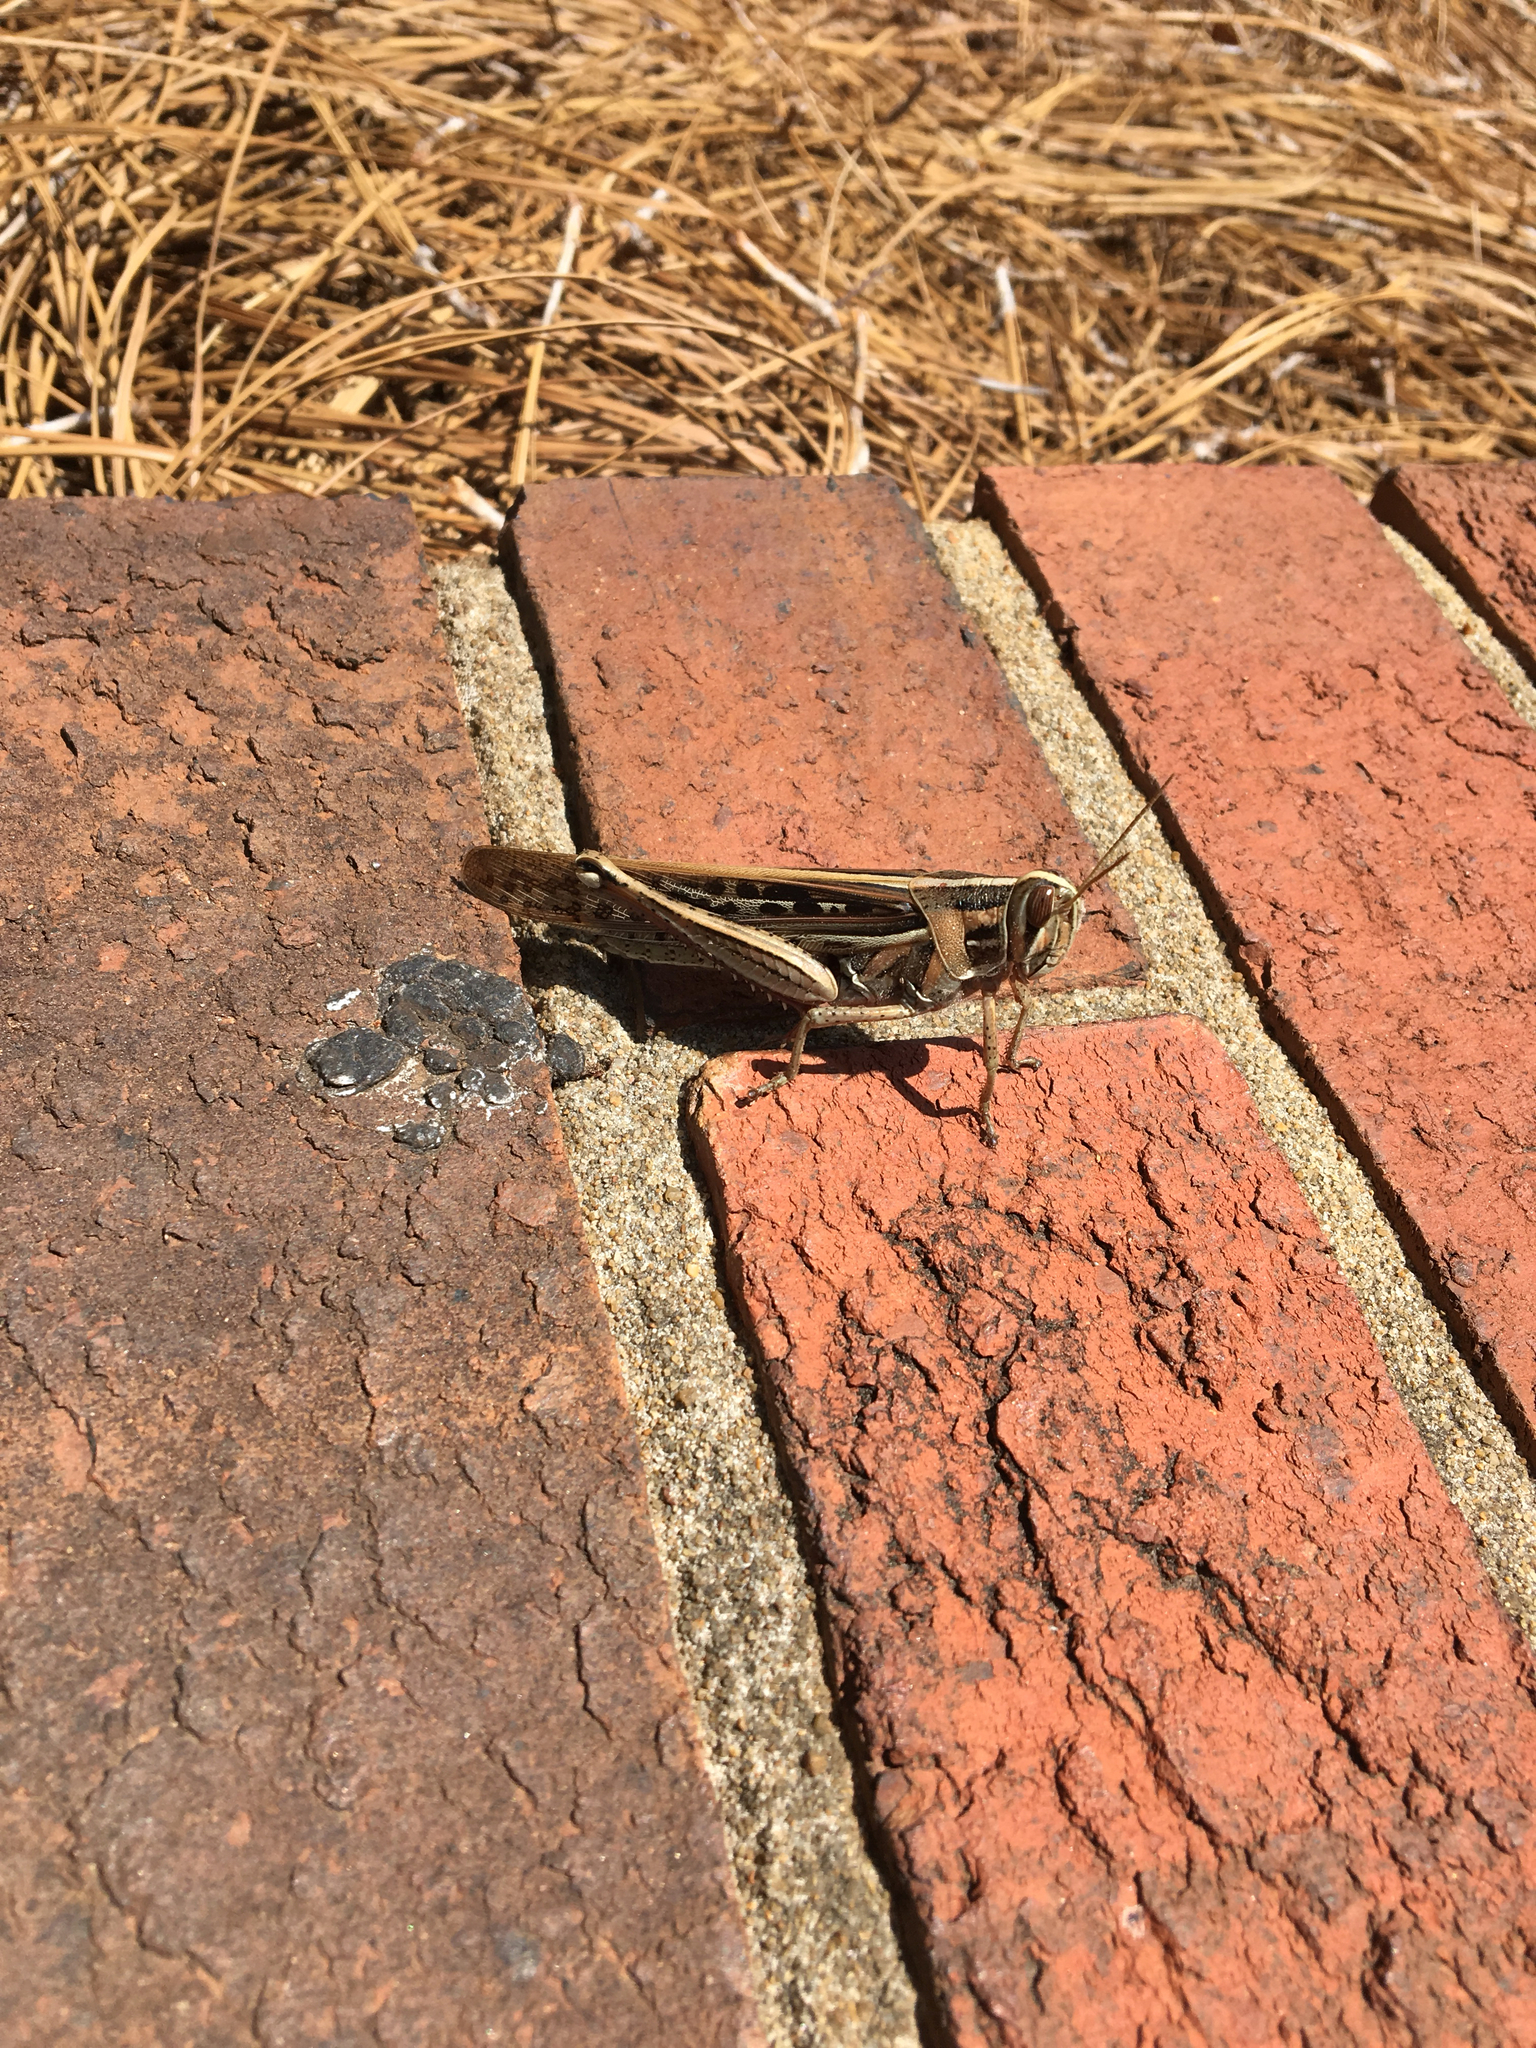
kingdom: Animalia
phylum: Arthropoda
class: Insecta
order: Orthoptera
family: Acrididae
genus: Schistocerca
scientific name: Schistocerca americana
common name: American bird locust
